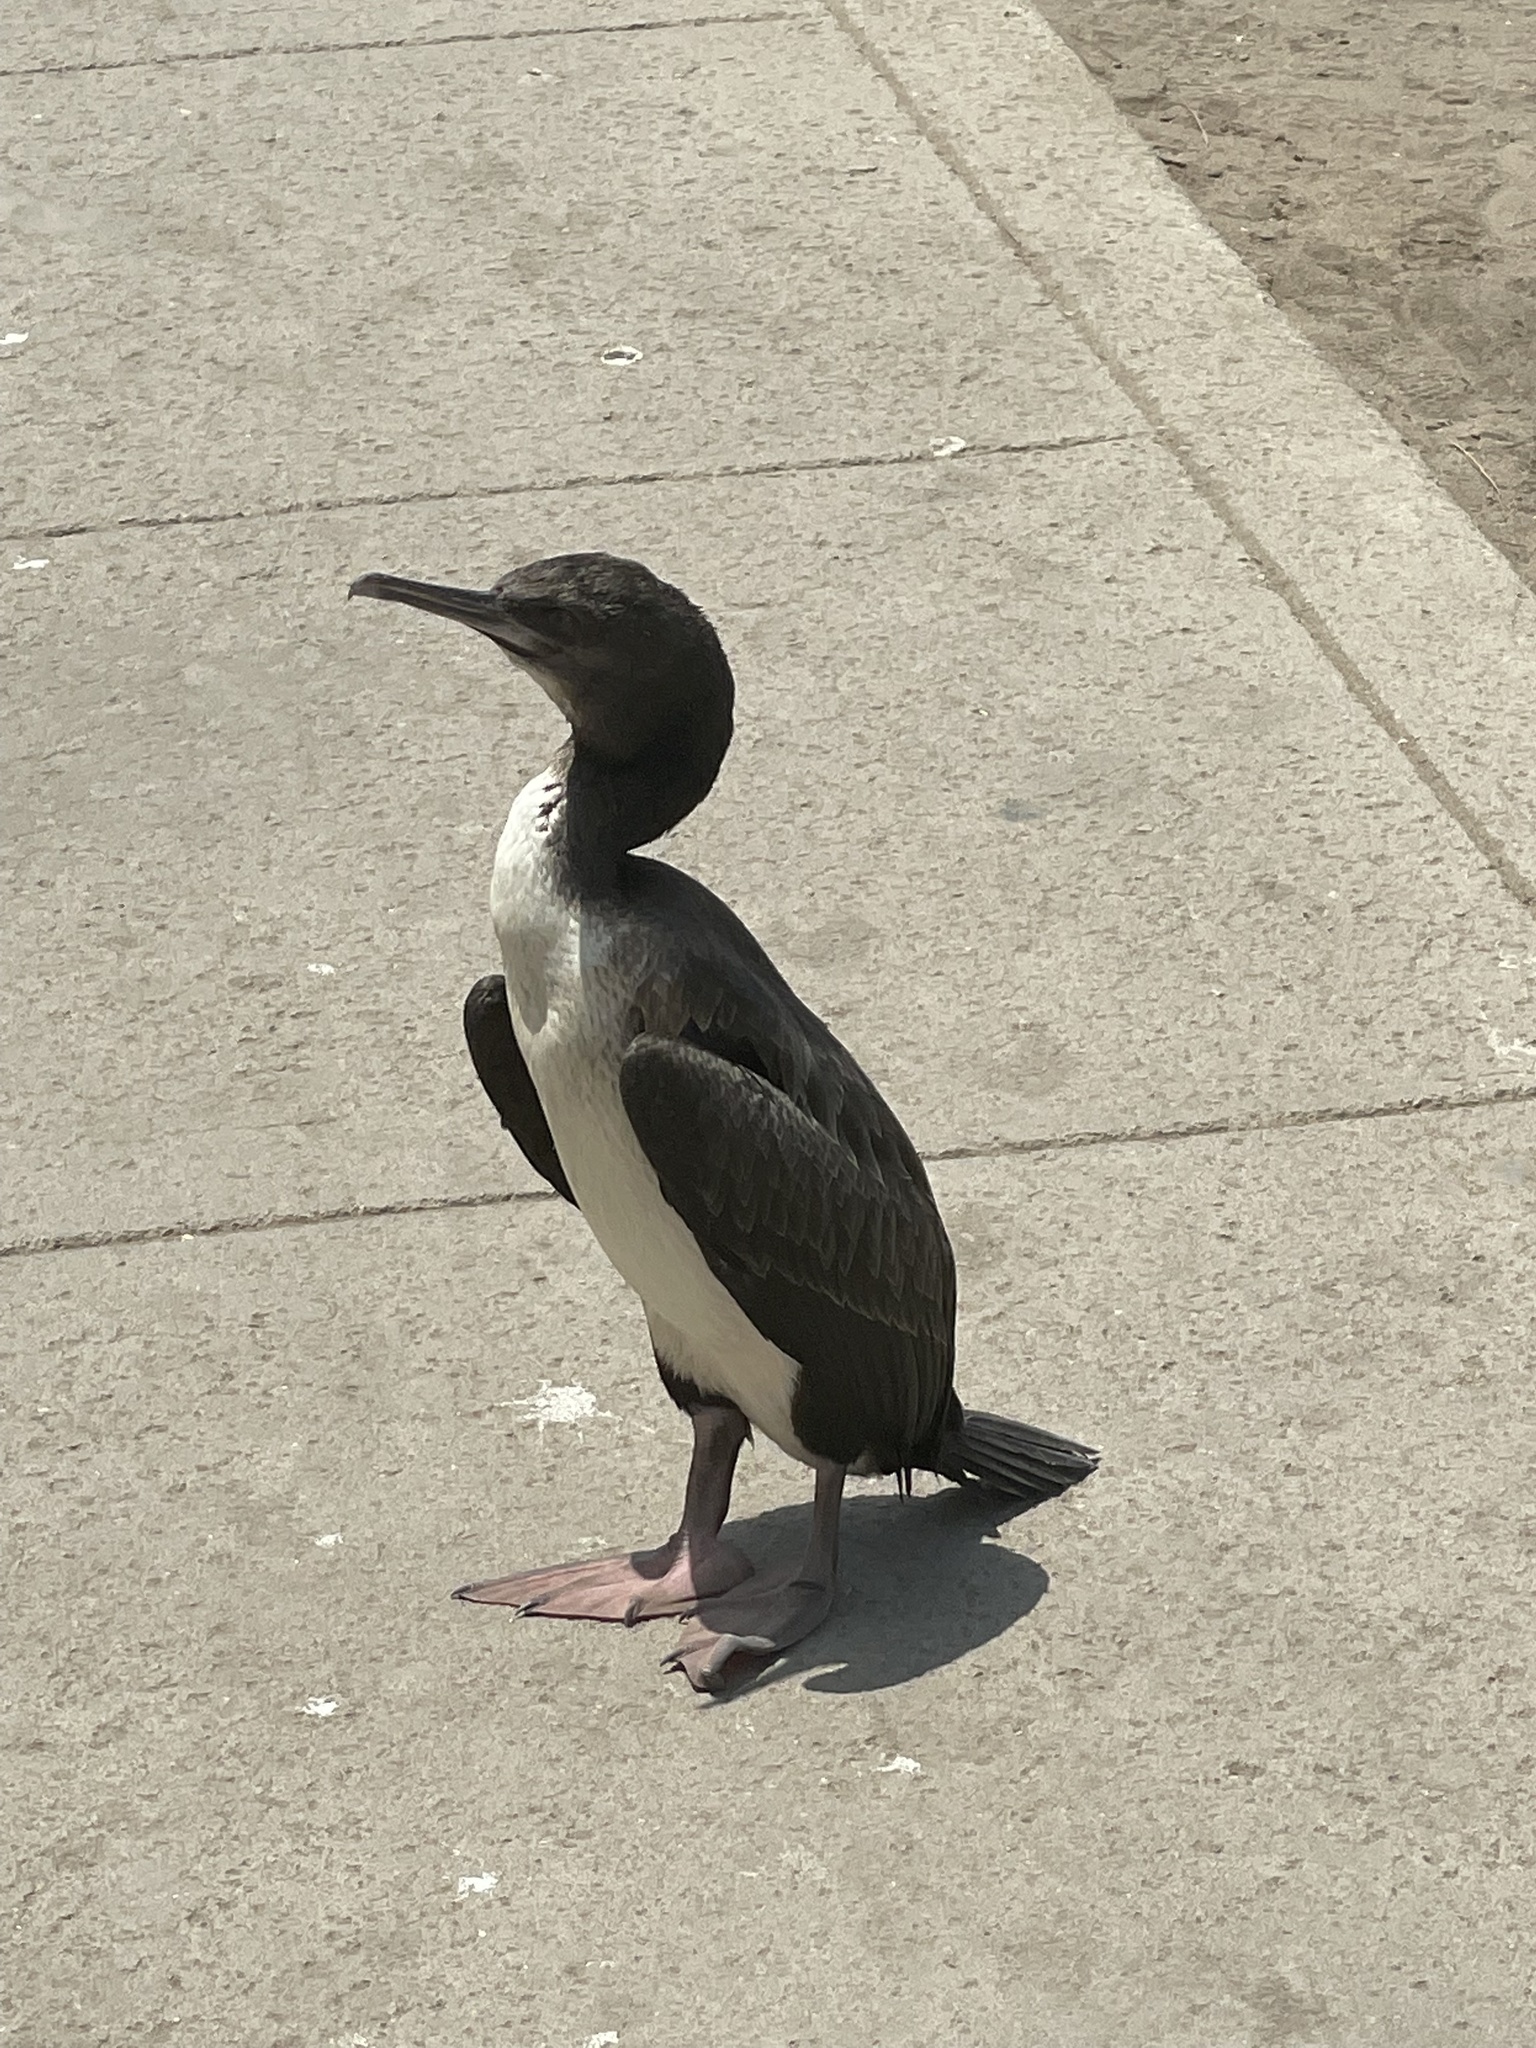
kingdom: Animalia
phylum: Chordata
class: Aves
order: Suliformes
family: Phalacrocoracidae
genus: Leucocarbo
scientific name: Leucocarbo bougainvillii
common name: Guanay cormorant
